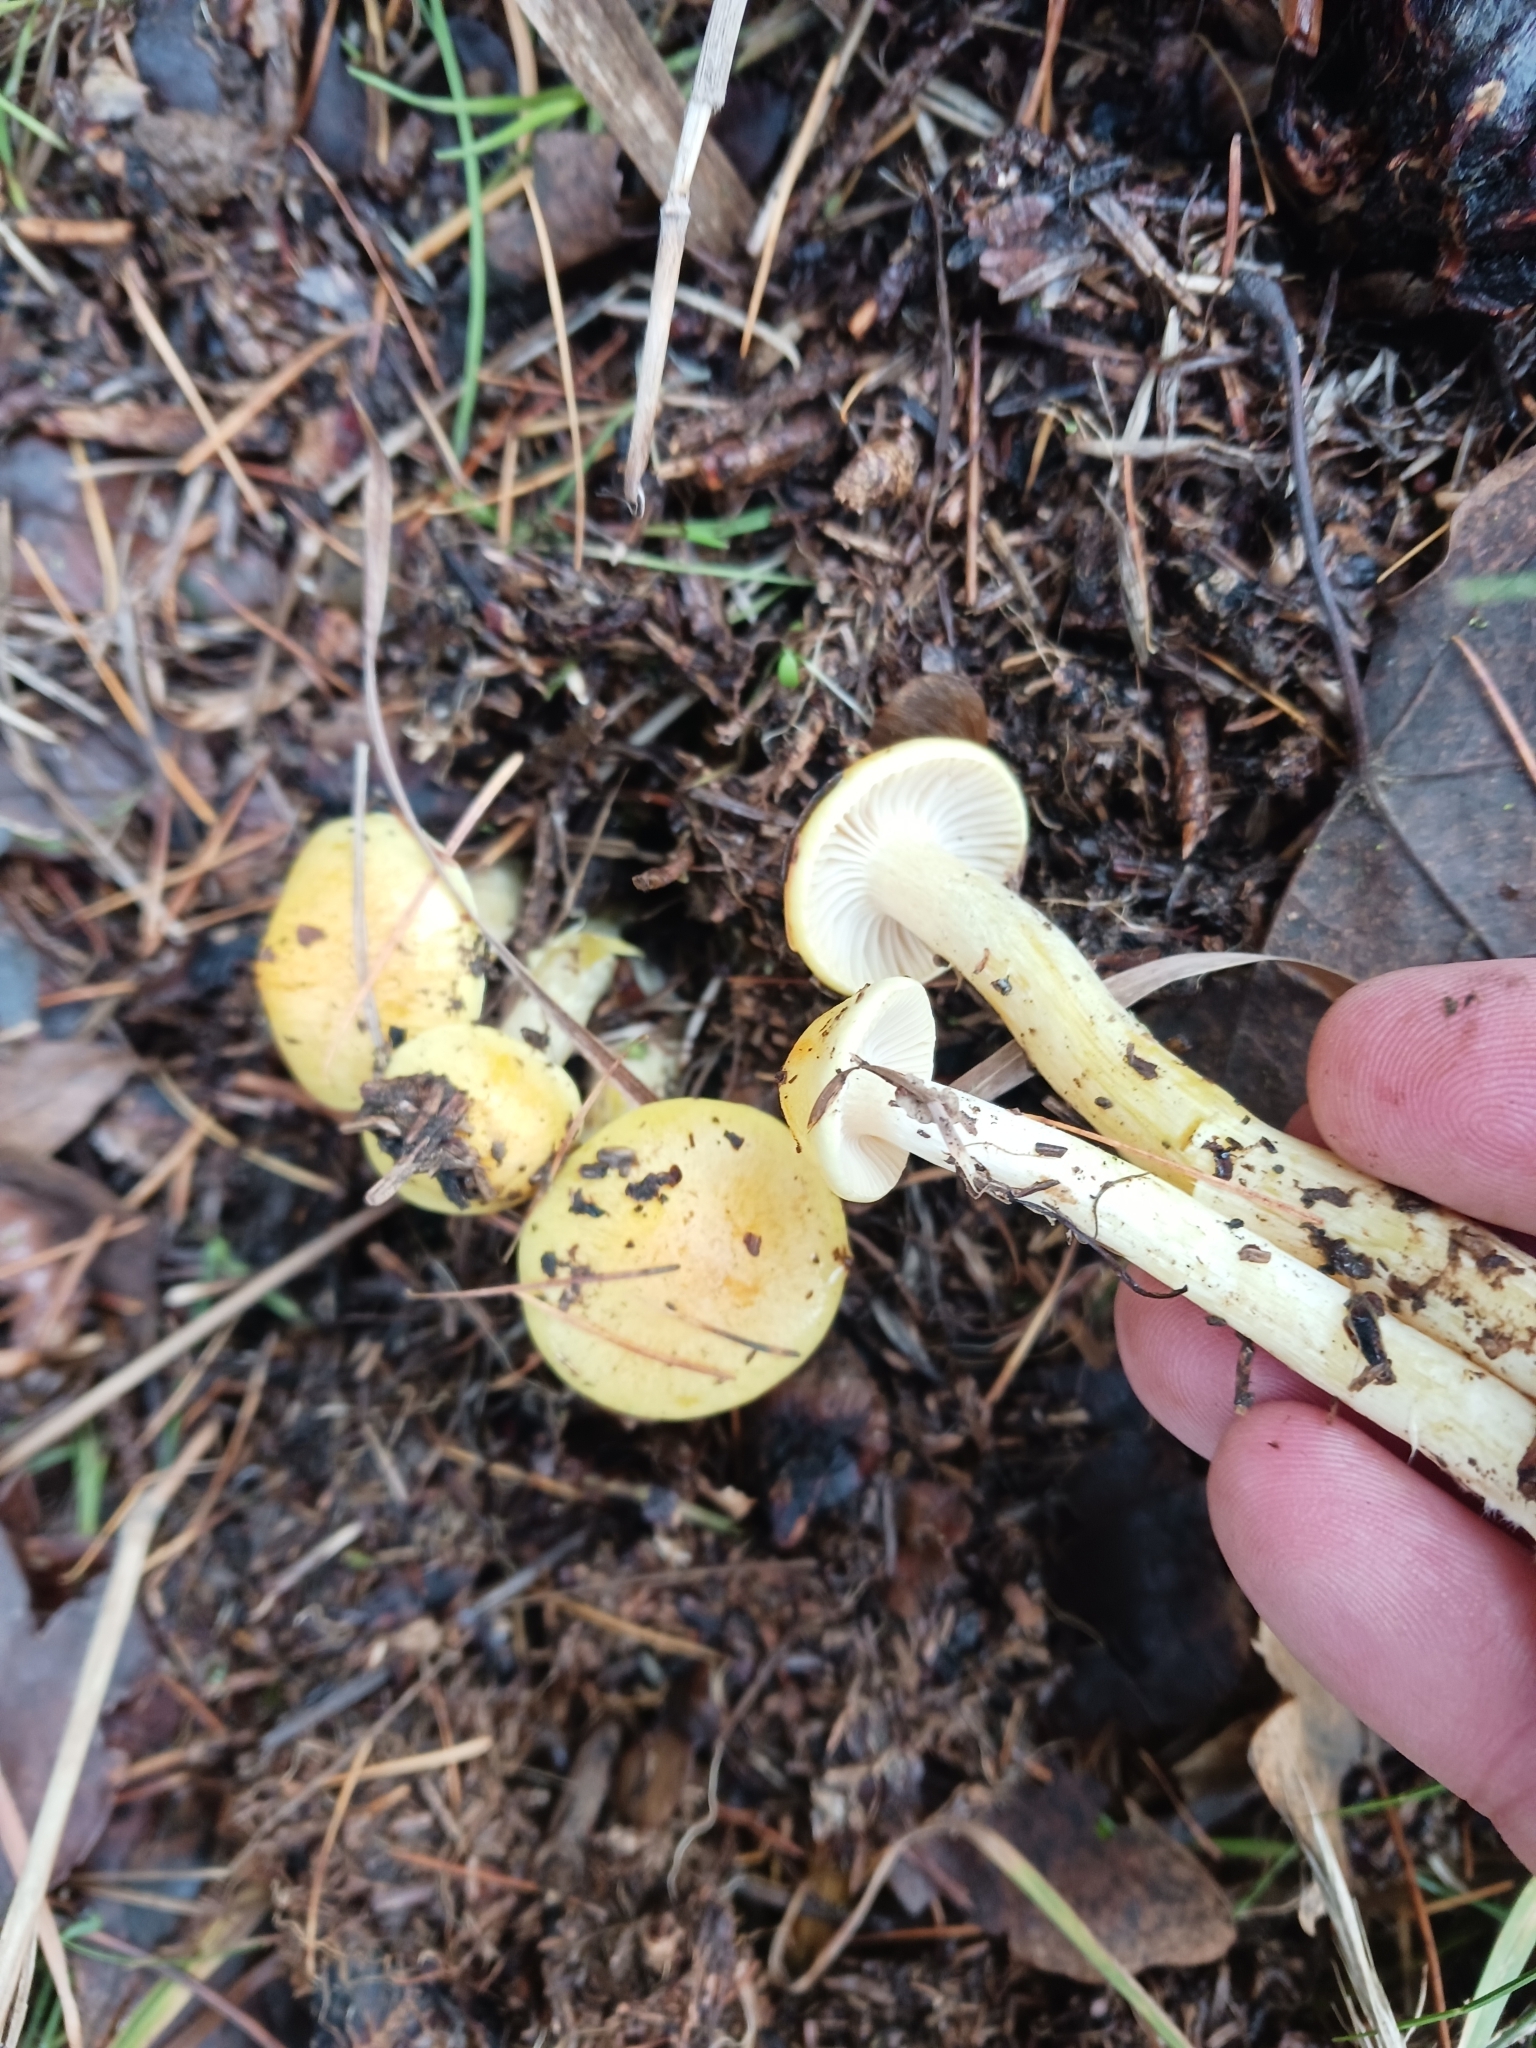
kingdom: Fungi
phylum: Basidiomycota
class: Agaricomycetes
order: Agaricales
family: Hygrophoraceae
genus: Hygrophorus
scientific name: Hygrophorus lucorum
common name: Larch woodwax
